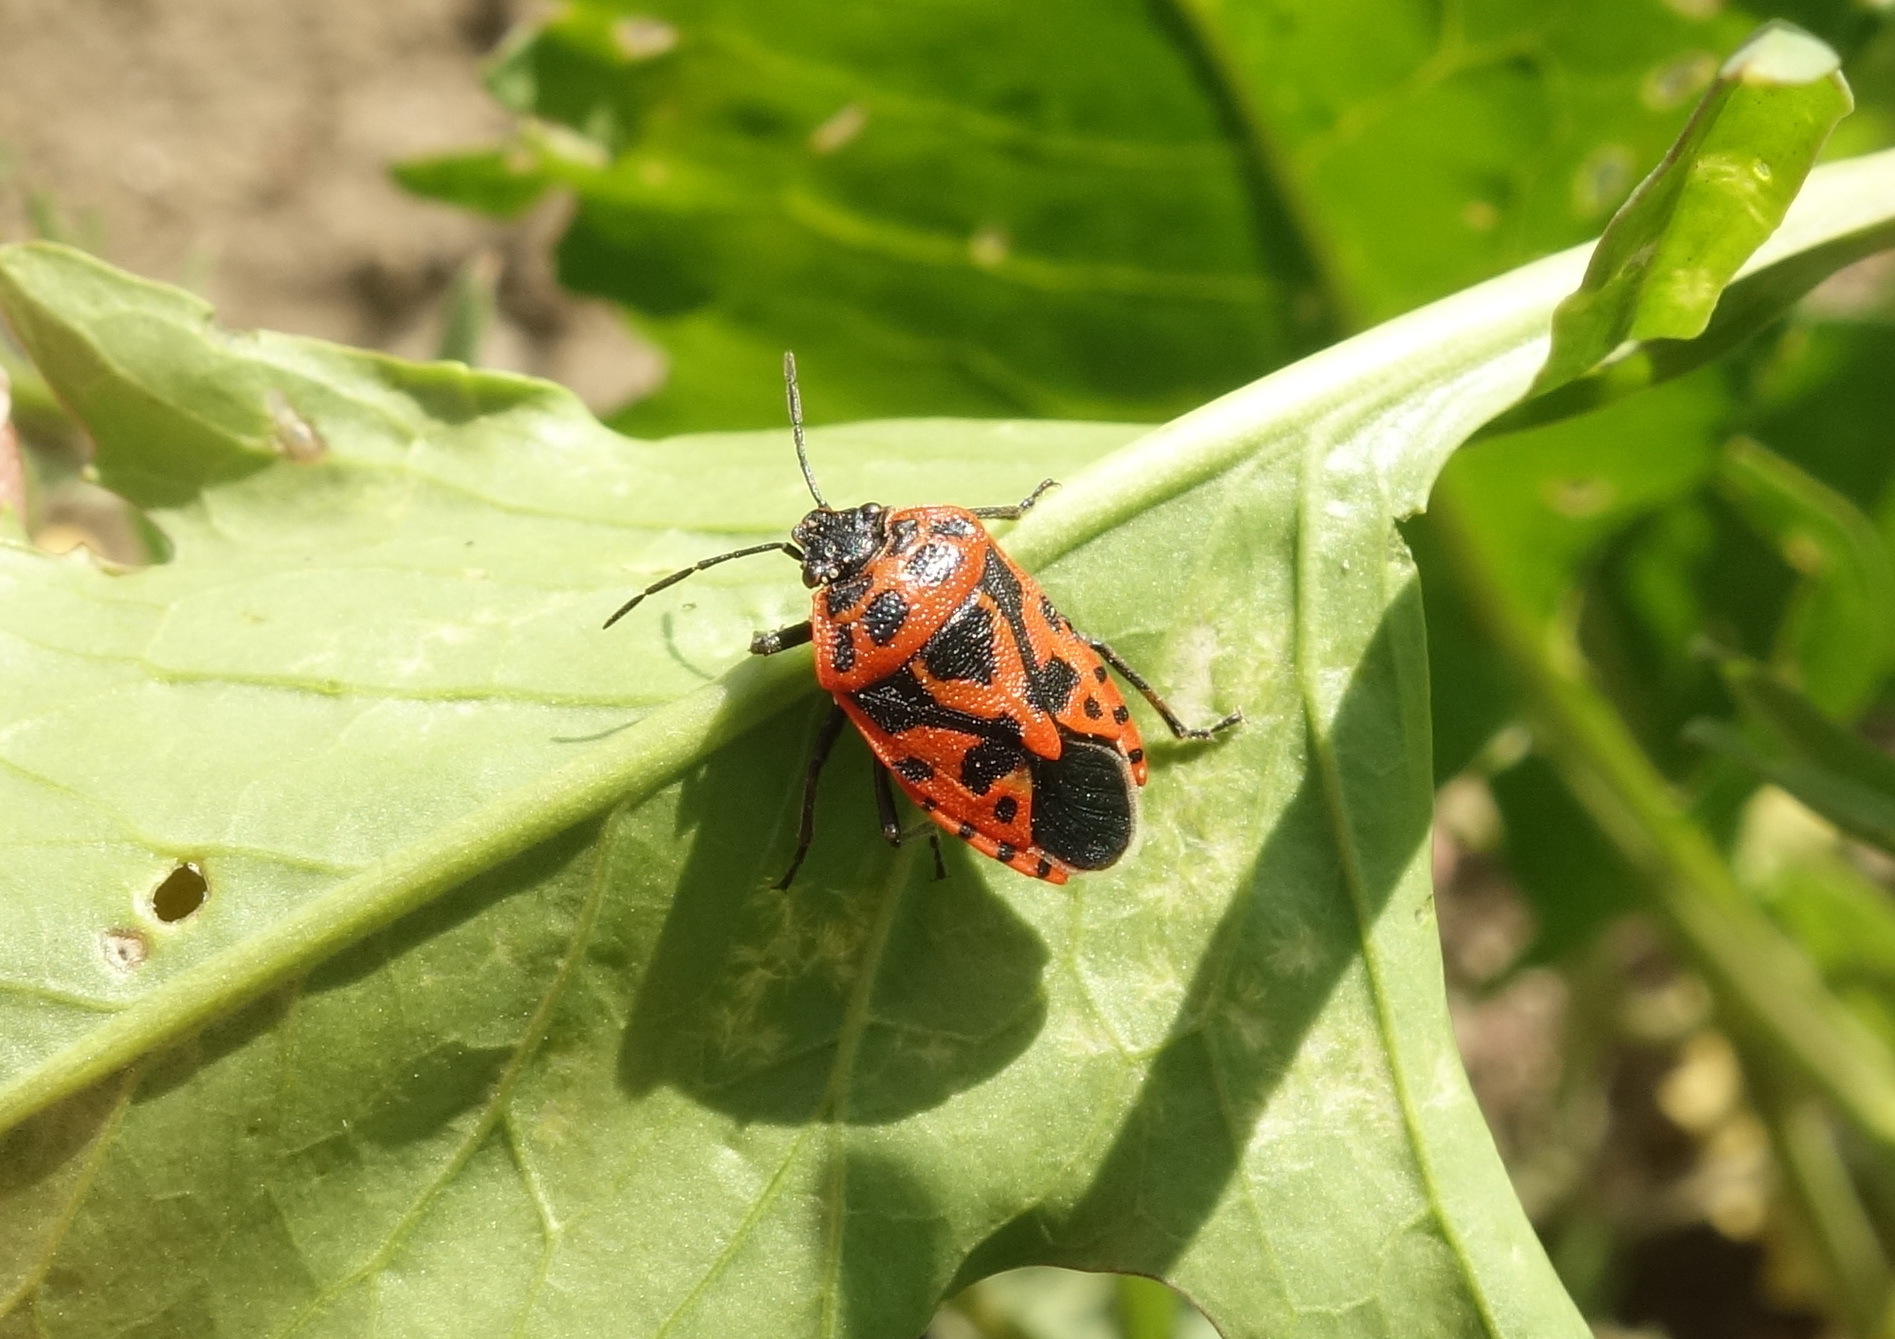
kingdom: Animalia
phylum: Arthropoda
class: Insecta
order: Hemiptera
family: Pentatomidae
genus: Eurydema
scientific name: Eurydema ventralis
